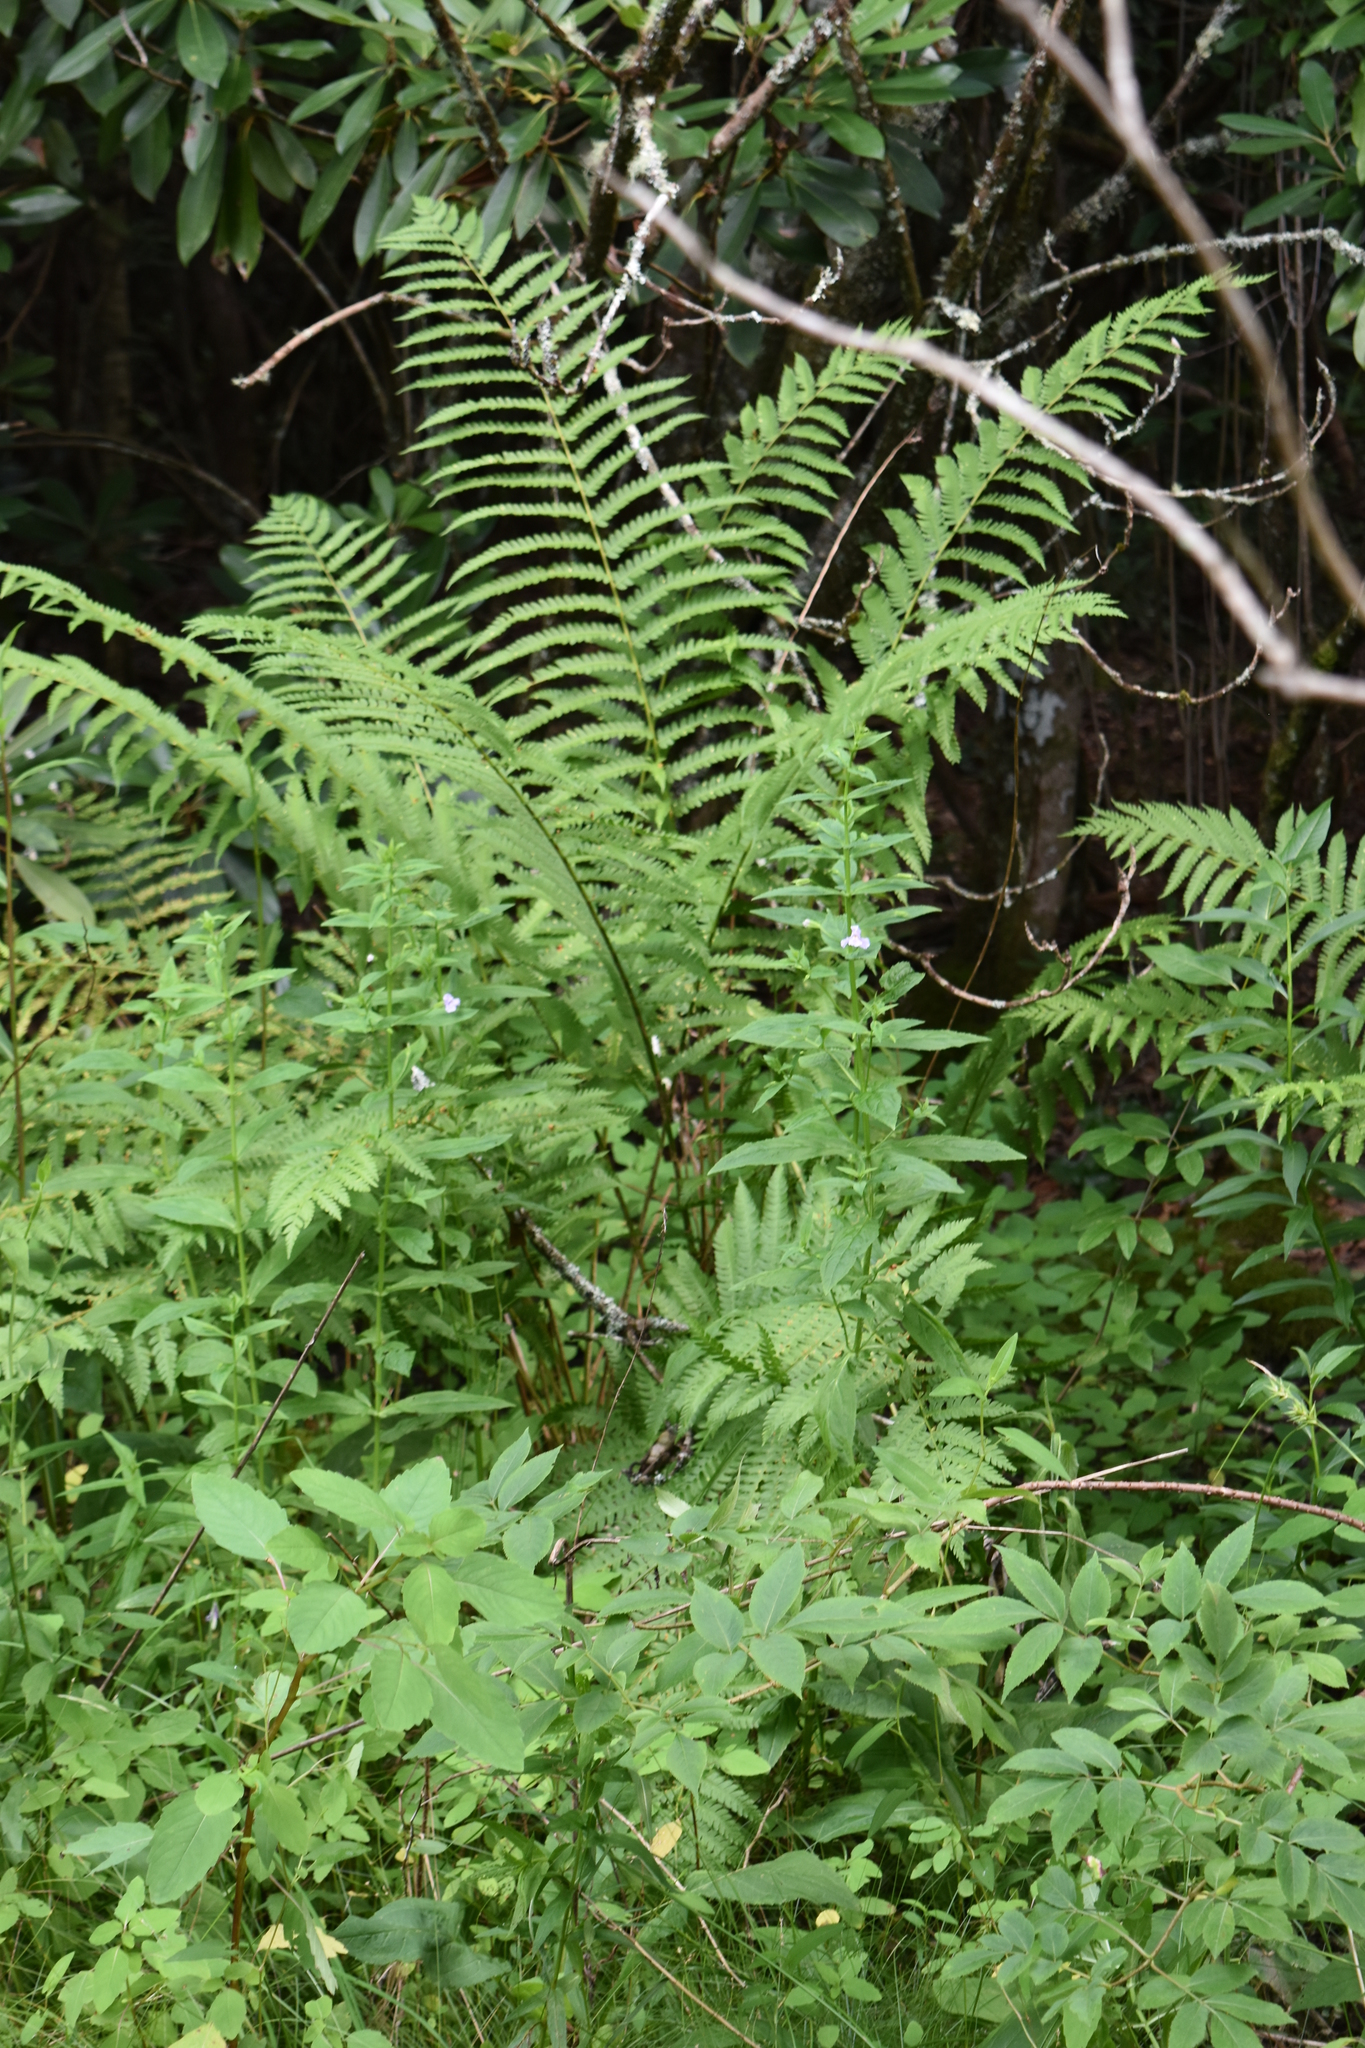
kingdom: Plantae
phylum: Tracheophyta
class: Polypodiopsida
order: Osmundales
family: Osmundaceae
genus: Osmundastrum
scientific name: Osmundastrum cinnamomeum
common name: Cinnamon fern
